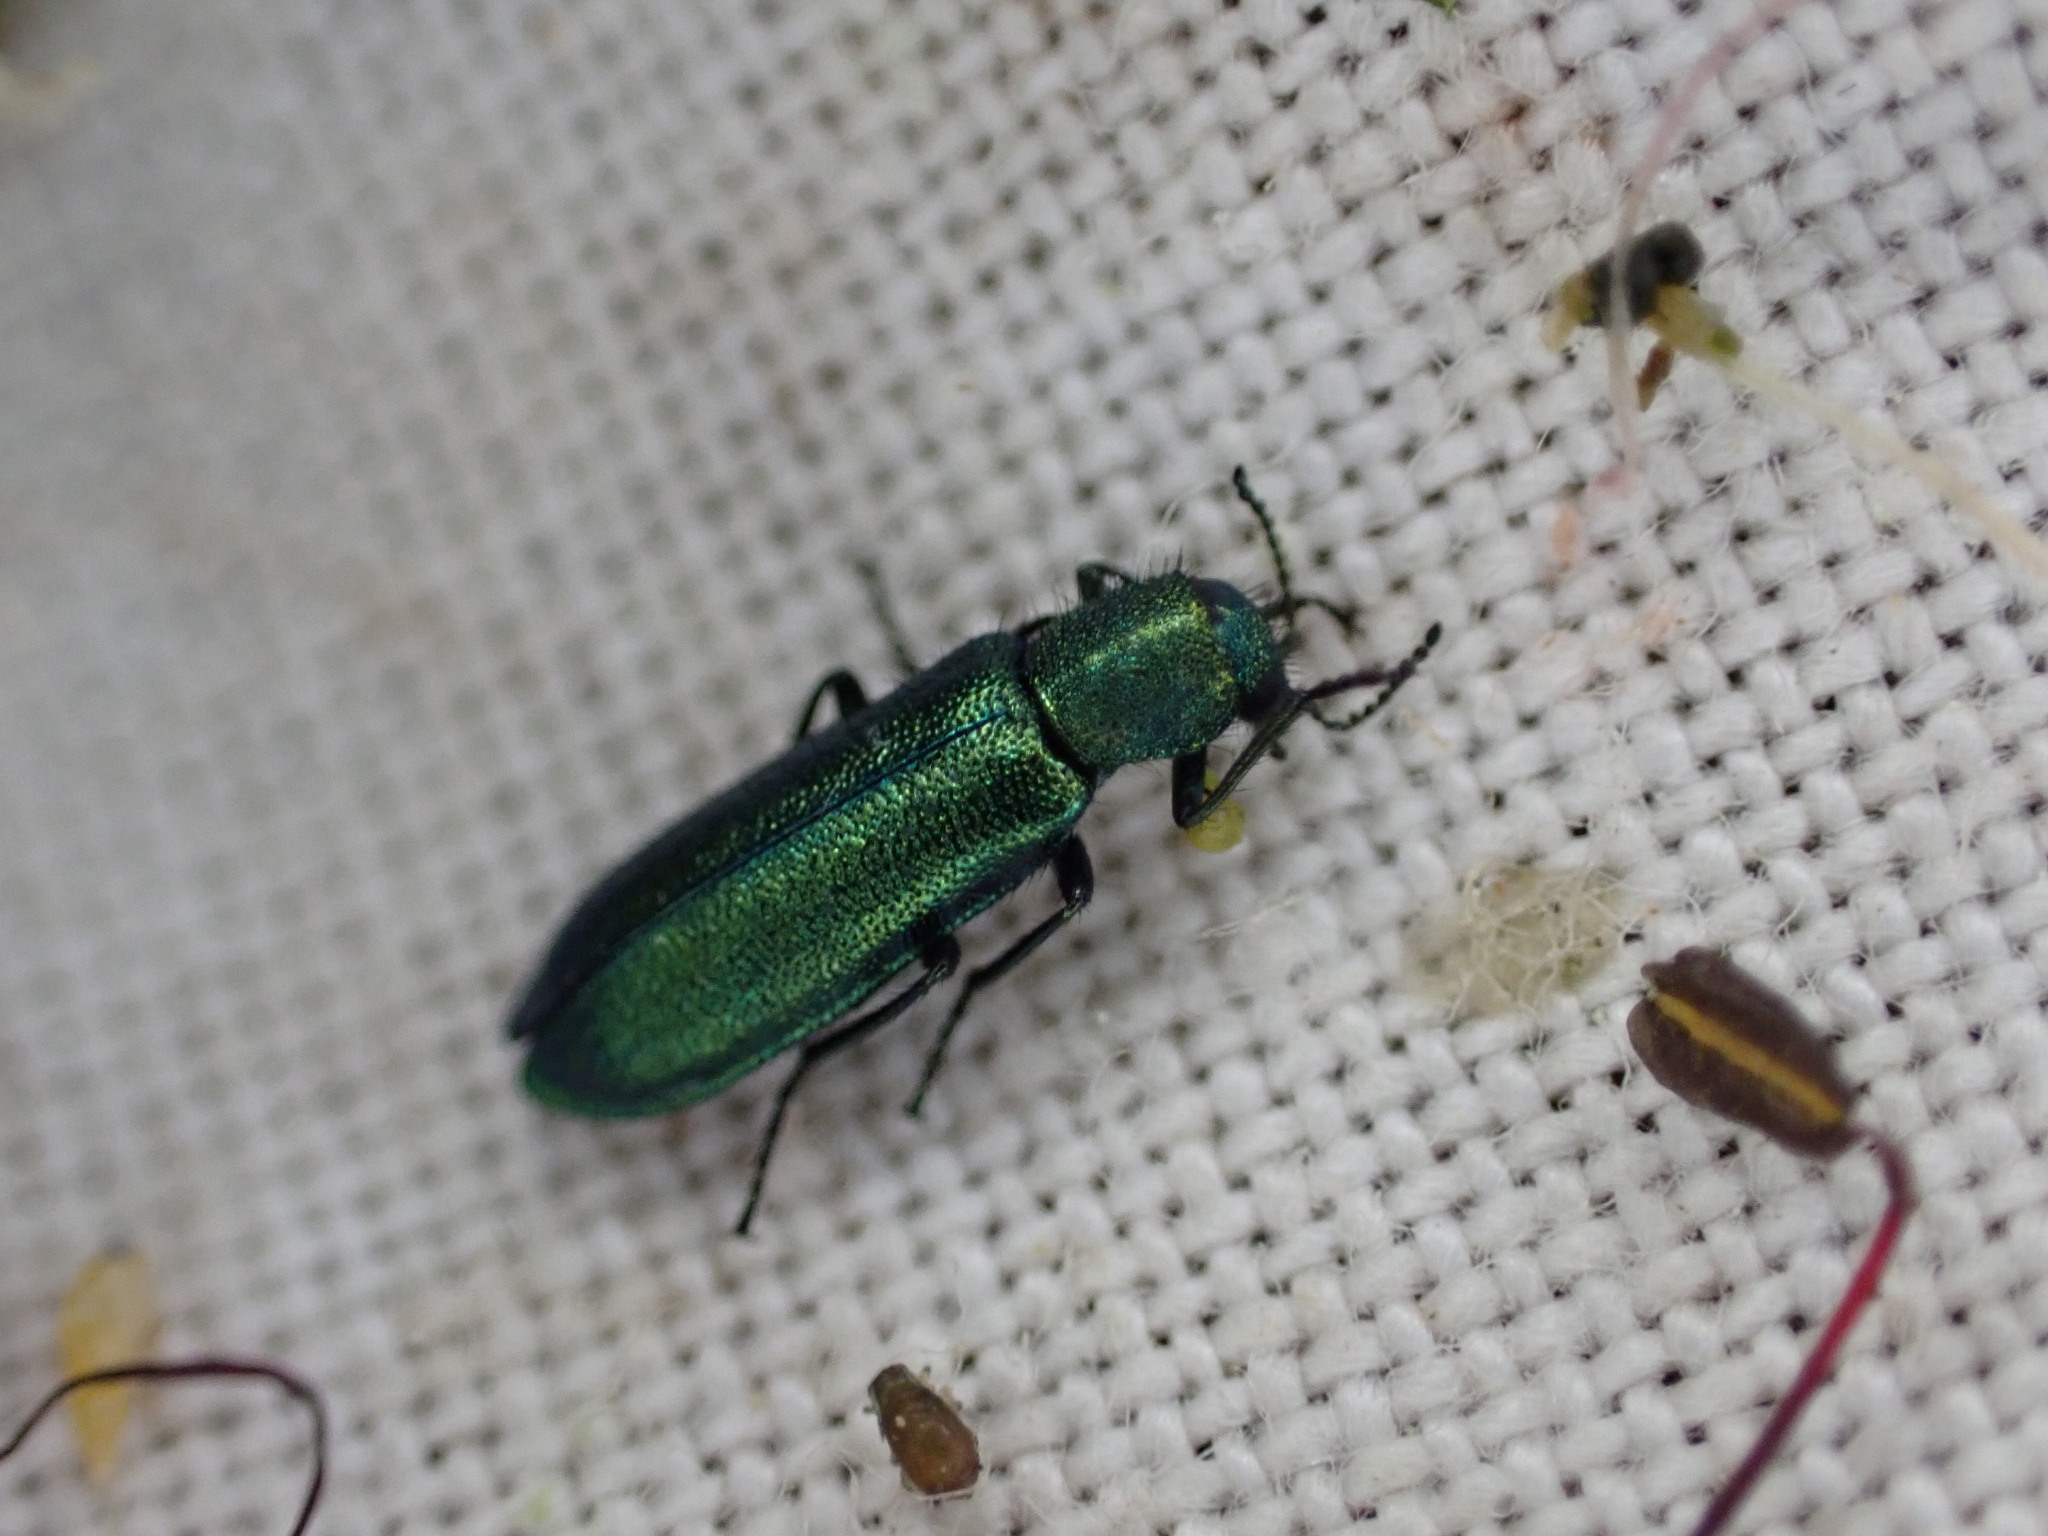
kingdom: Animalia
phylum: Arthropoda
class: Insecta
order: Coleoptera
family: Dasytidae
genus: Psilothrix
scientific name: Psilothrix viridicoerulea
